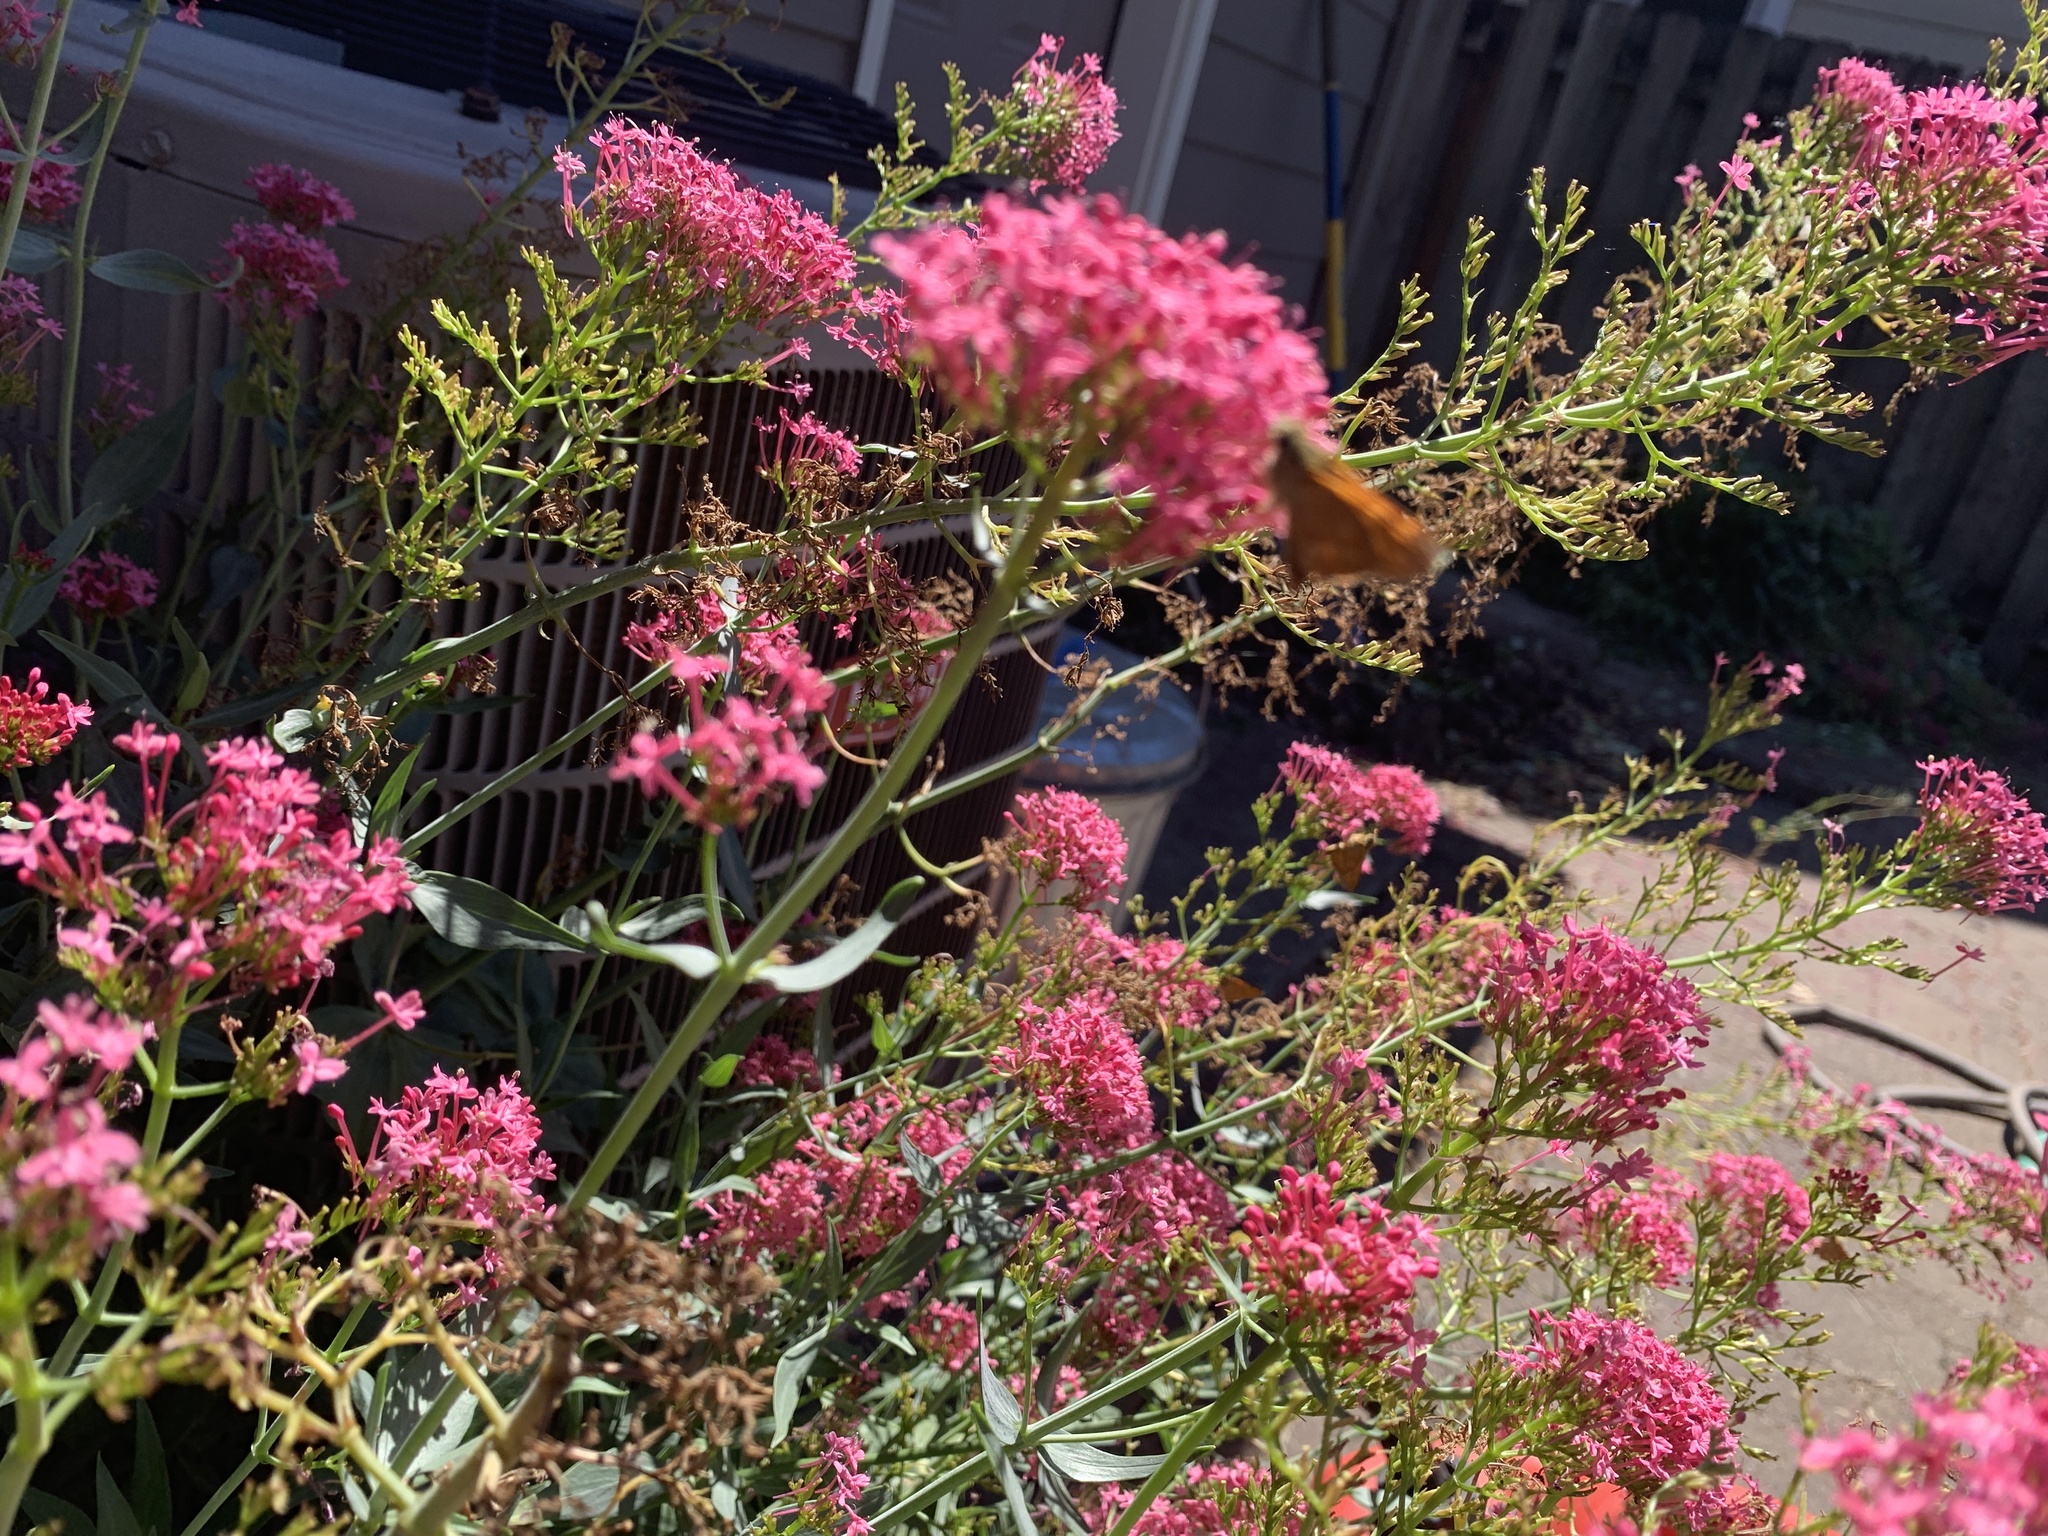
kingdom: Animalia
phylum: Arthropoda
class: Insecta
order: Lepidoptera
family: Hesperiidae
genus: Ochlodes
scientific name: Ochlodes sylvanoides
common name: Woodland skipper
